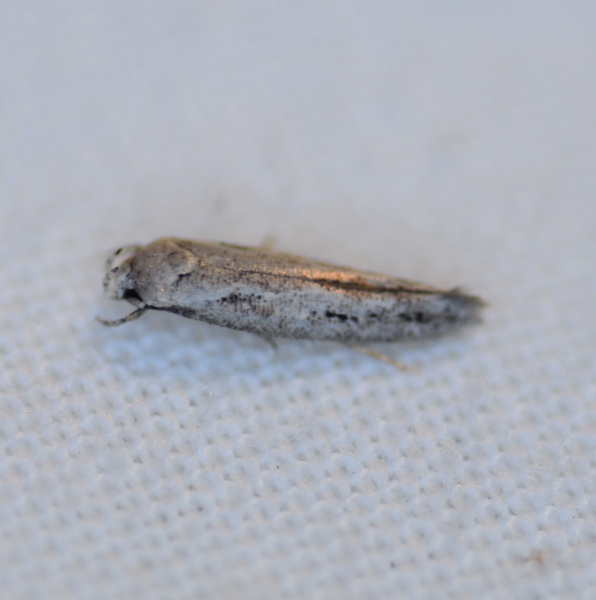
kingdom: Animalia
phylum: Arthropoda
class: Insecta
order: Lepidoptera
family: Momphidae
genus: Mompha
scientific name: Mompha brevivittella
